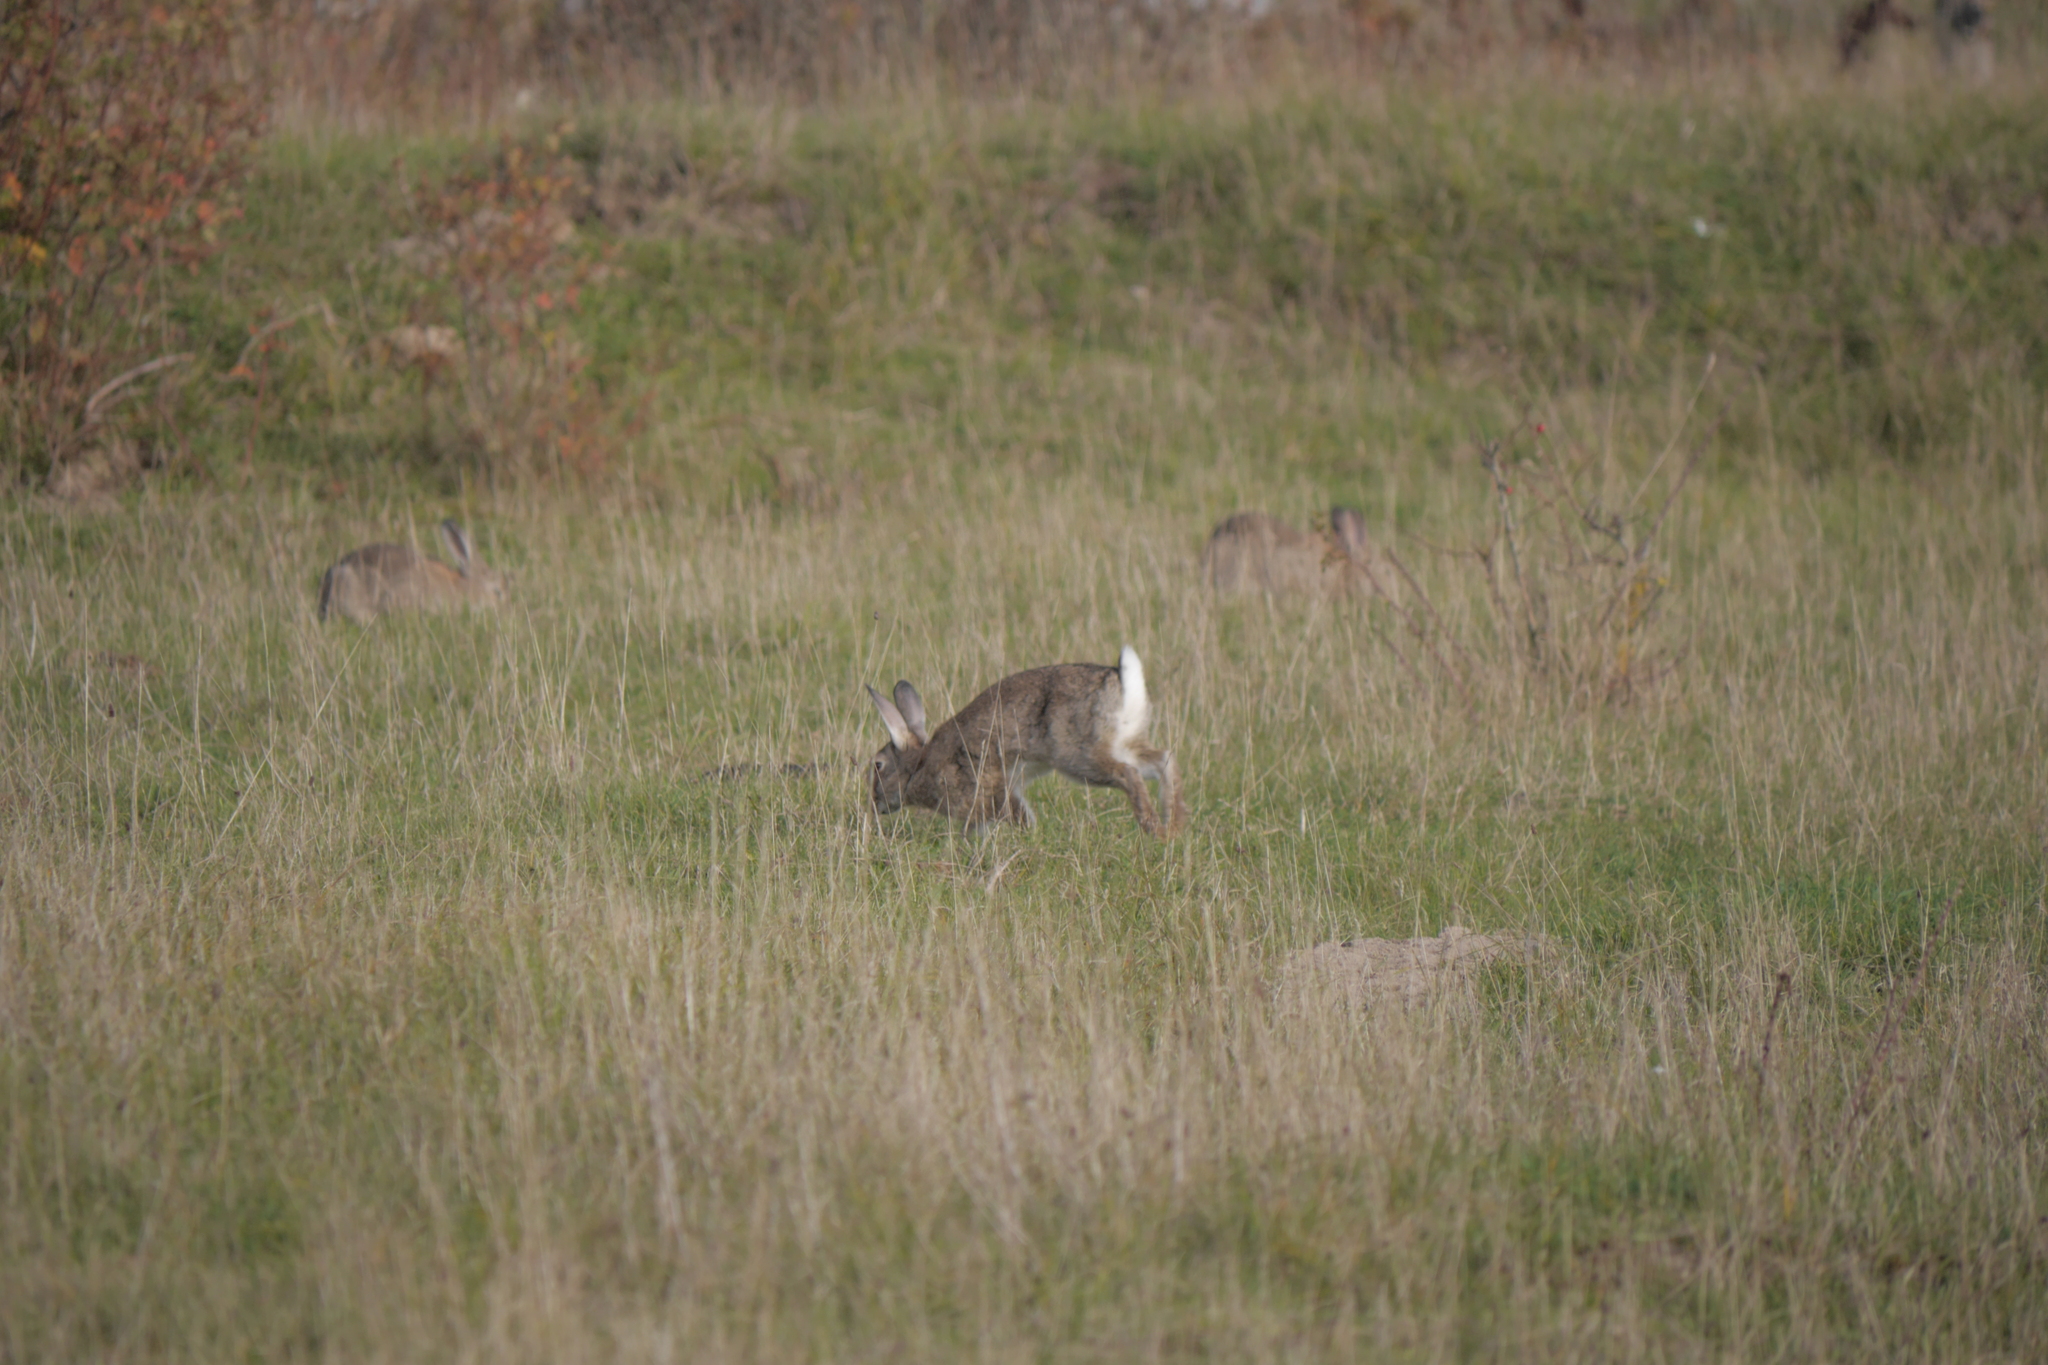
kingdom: Animalia
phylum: Chordata
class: Mammalia
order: Lagomorpha
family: Leporidae
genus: Oryctolagus
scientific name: Oryctolagus cuniculus
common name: European rabbit
